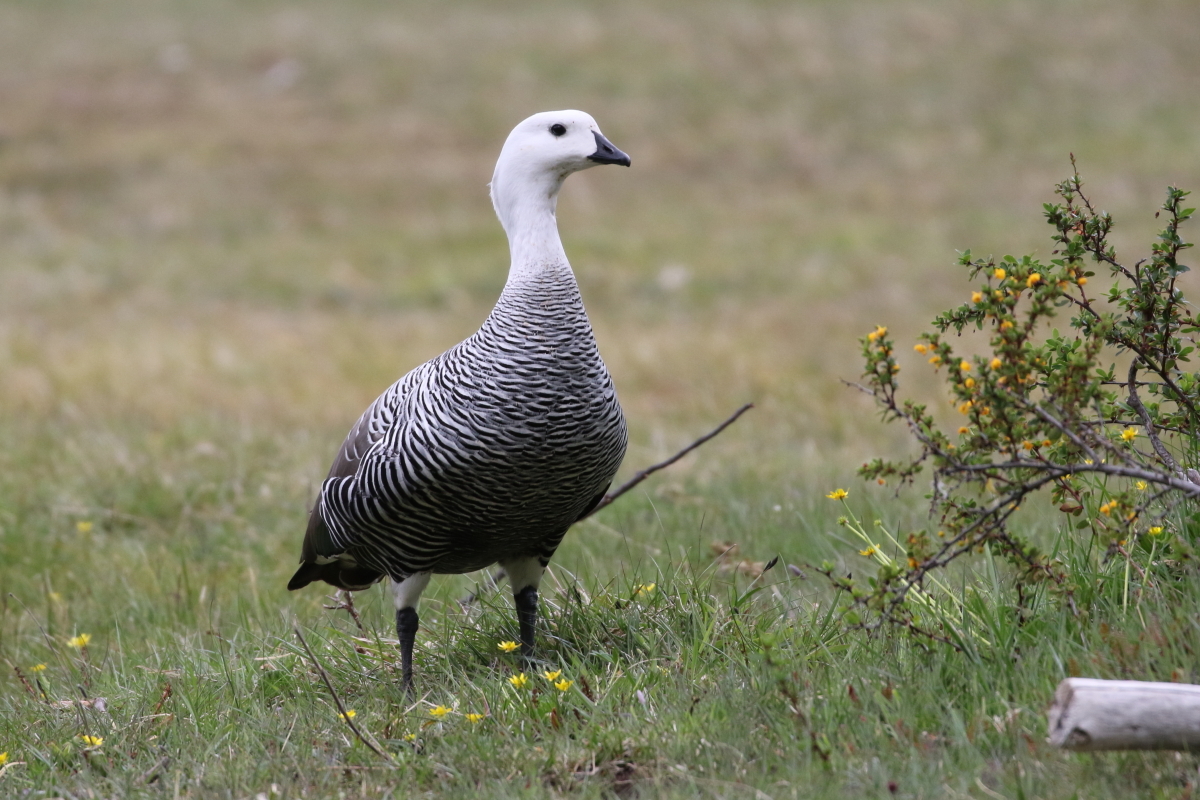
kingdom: Animalia
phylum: Chordata
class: Aves
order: Anseriformes
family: Anatidae
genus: Chloephaga
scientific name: Chloephaga picta
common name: Upland goose
